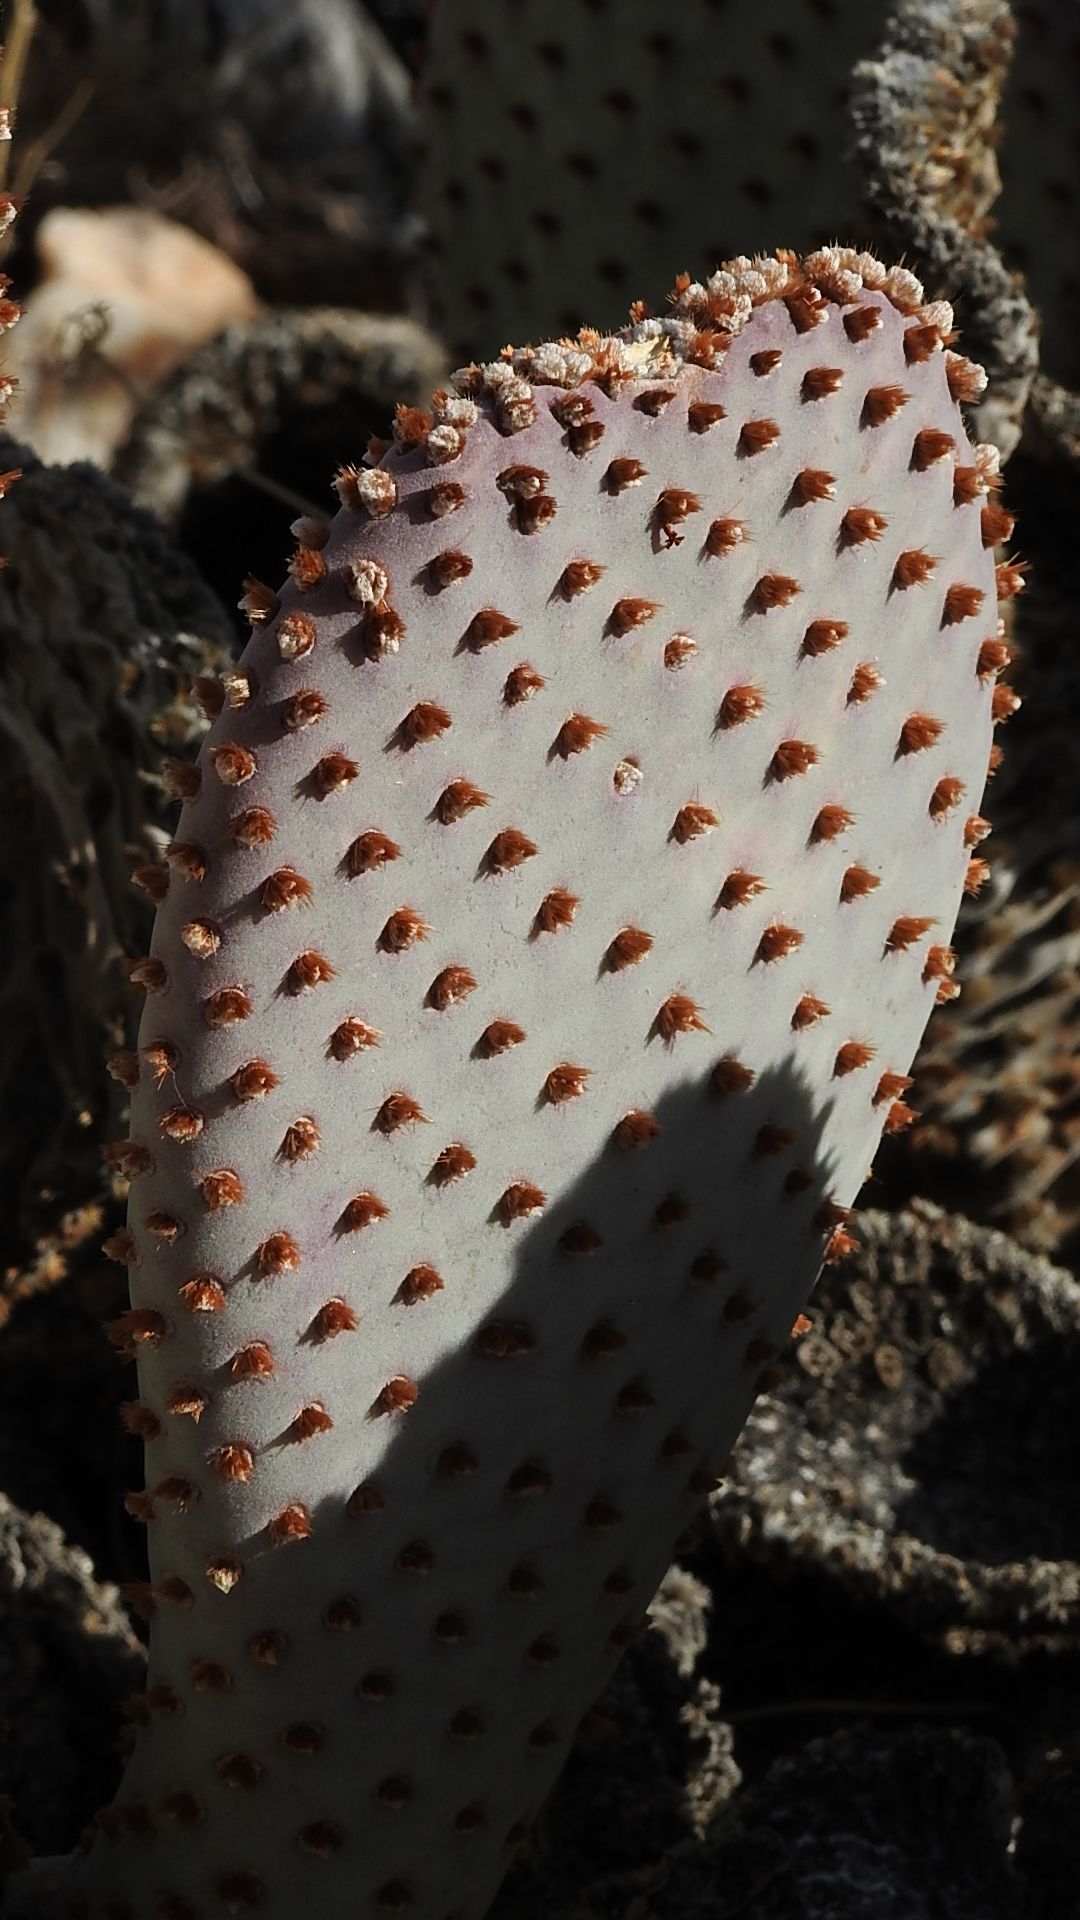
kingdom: Plantae
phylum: Tracheophyta
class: Magnoliopsida
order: Caryophyllales
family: Cactaceae
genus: Opuntia
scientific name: Opuntia basilaris
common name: Beavertail prickly-pear
